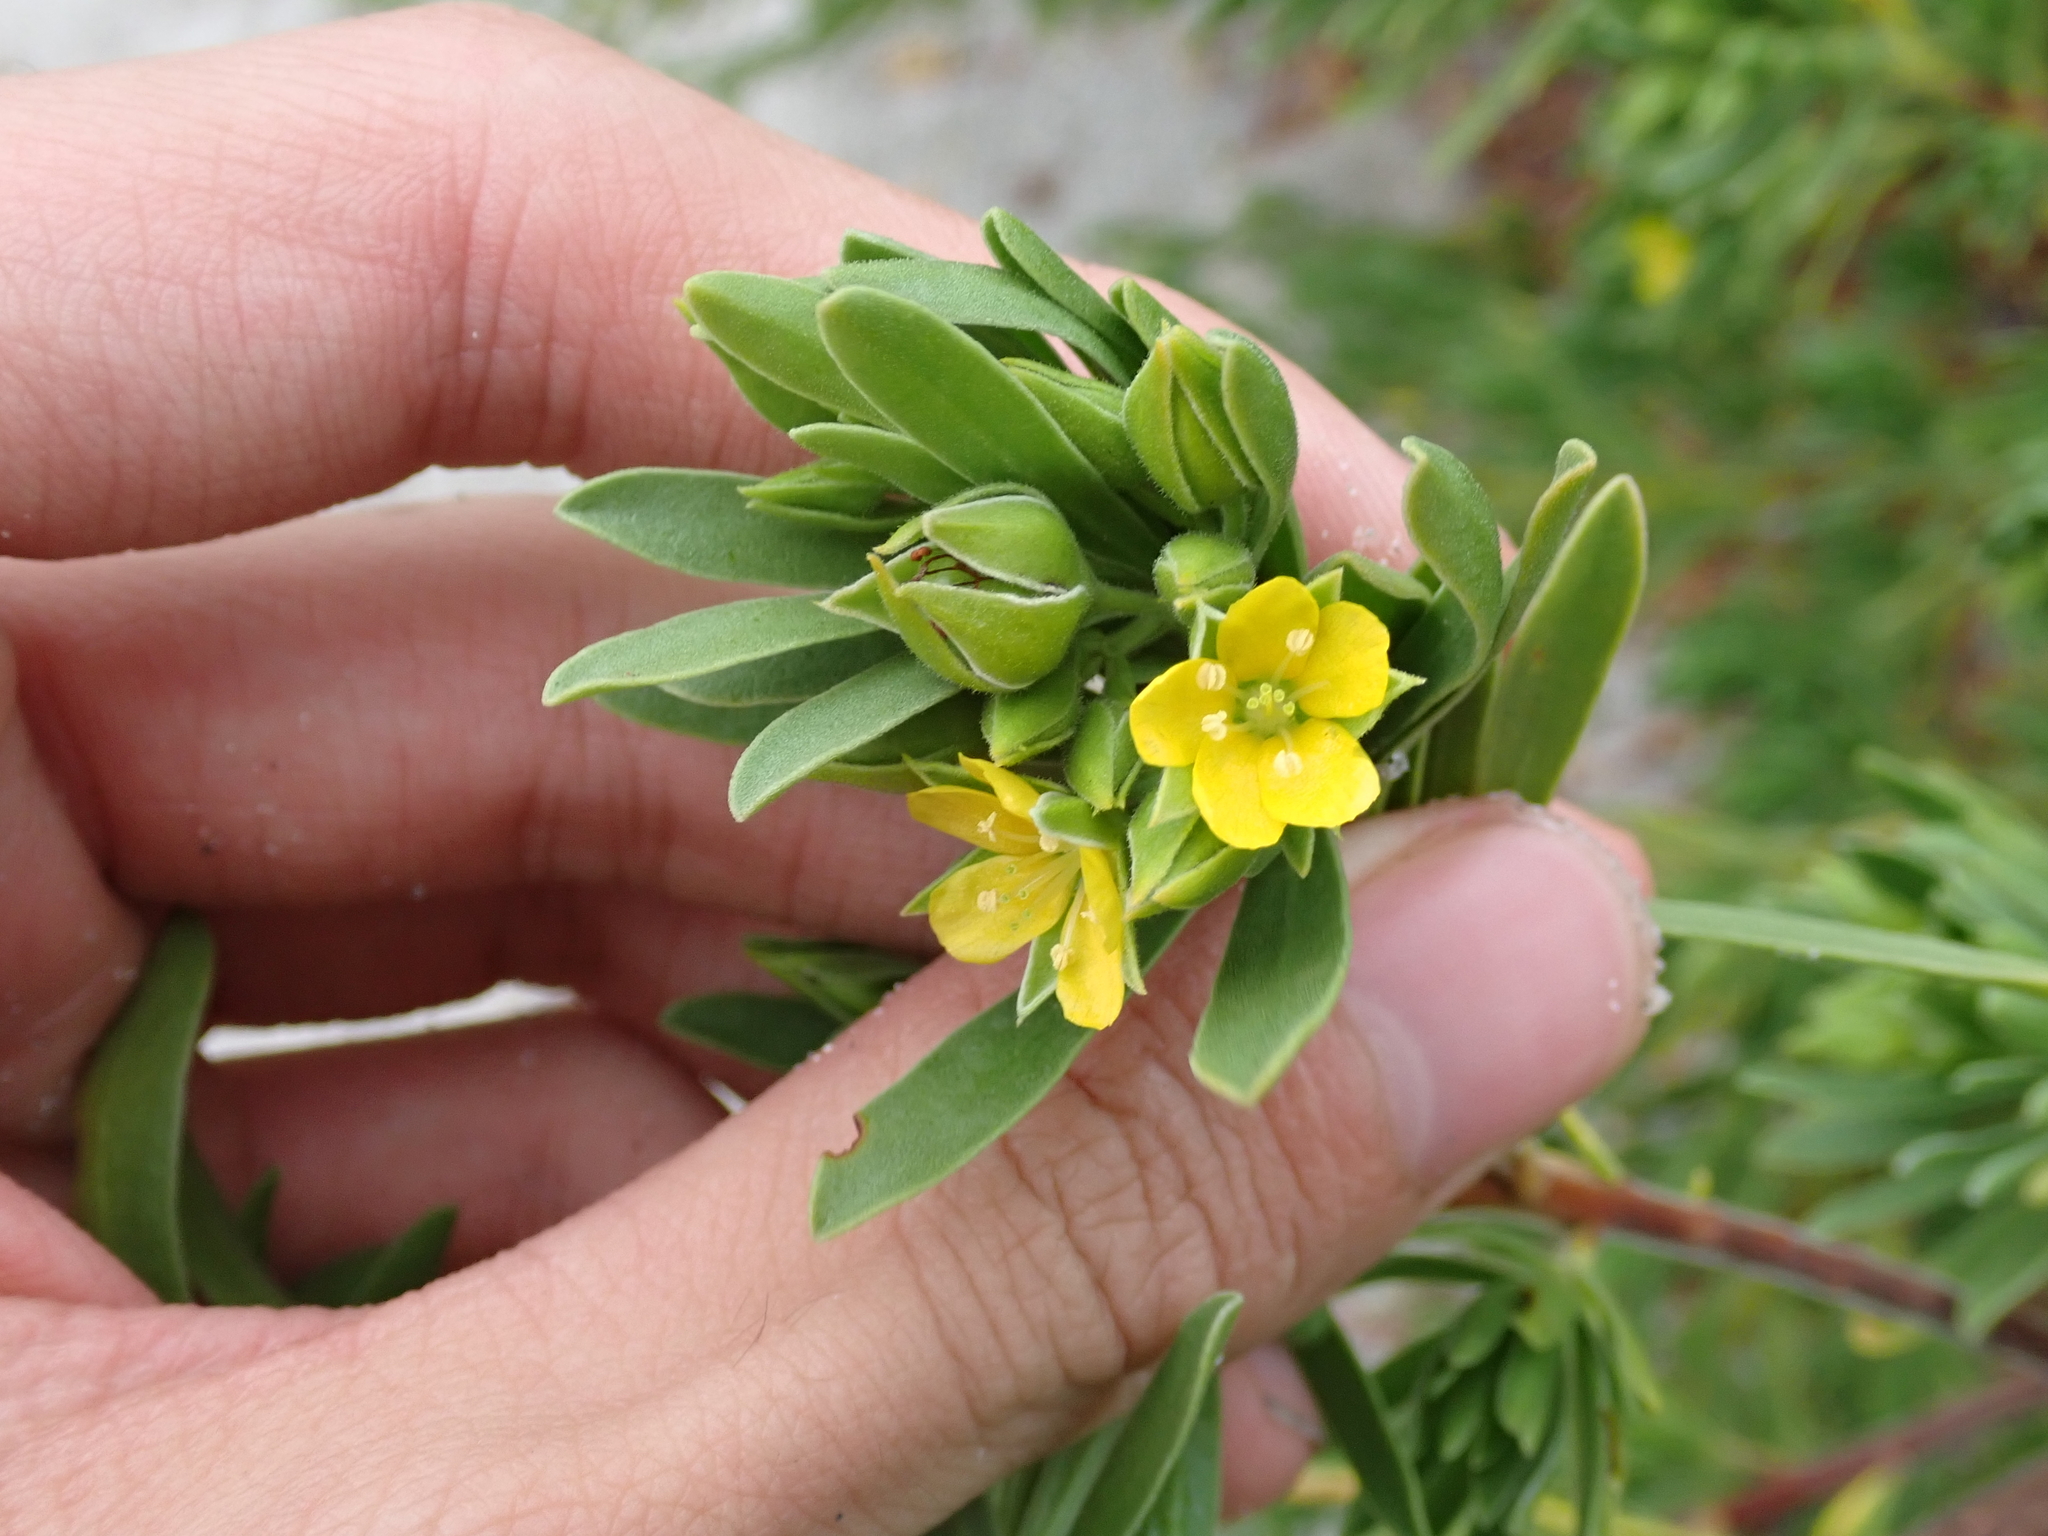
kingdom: Plantae
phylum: Tracheophyta
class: Magnoliopsida
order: Fabales
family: Surianaceae
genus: Suriana
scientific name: Suriana maritima
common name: Bay-cedar
